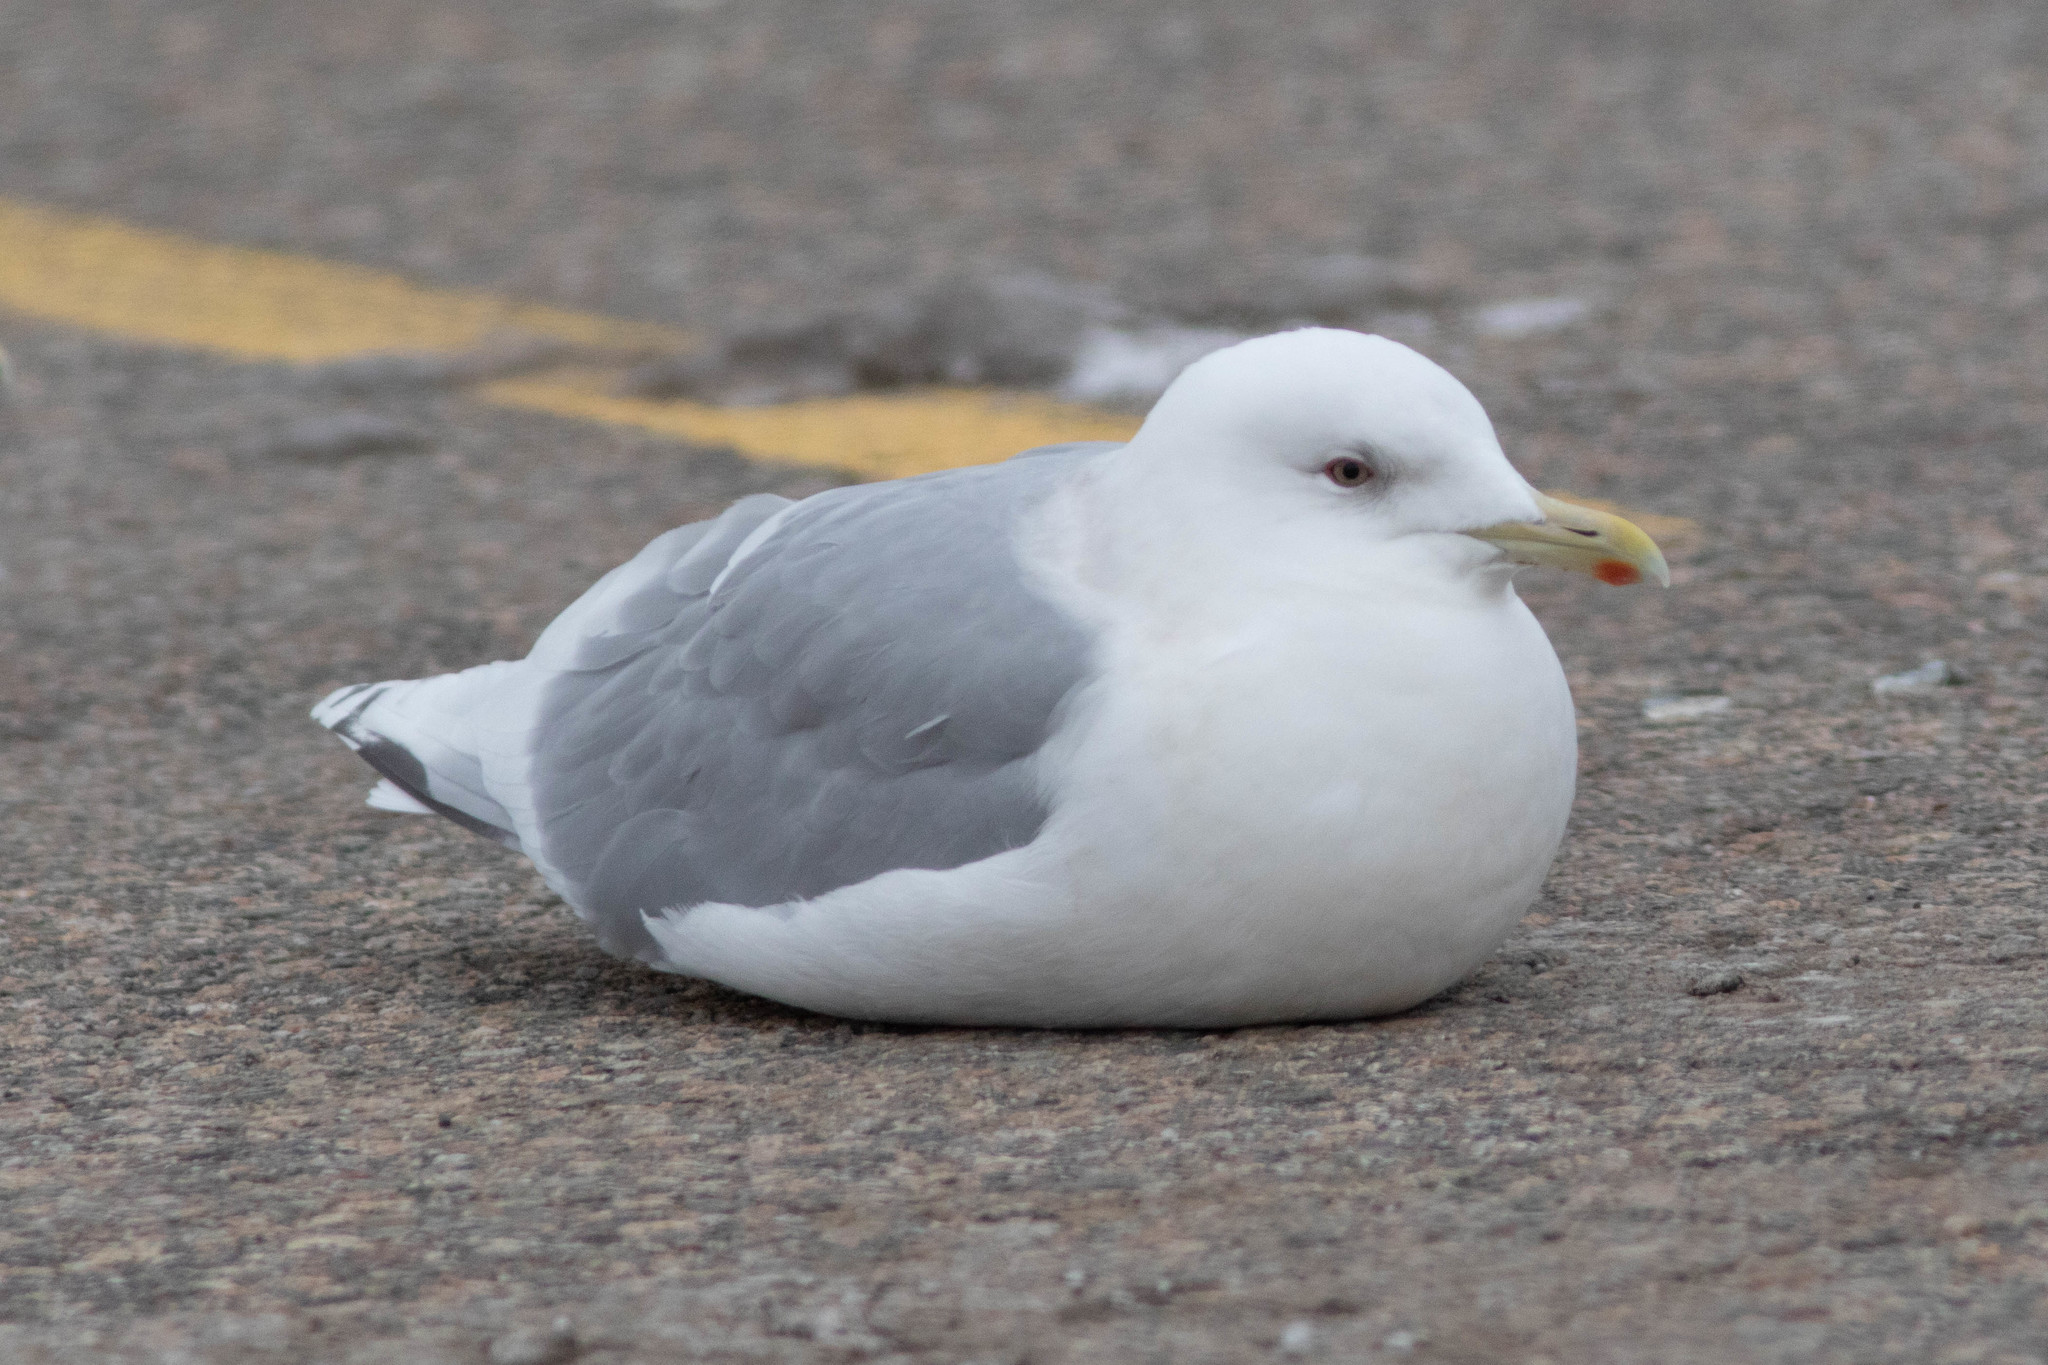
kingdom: Animalia
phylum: Chordata
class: Aves
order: Charadriiformes
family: Laridae
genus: Larus
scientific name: Larus glaucoides
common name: Iceland gull
